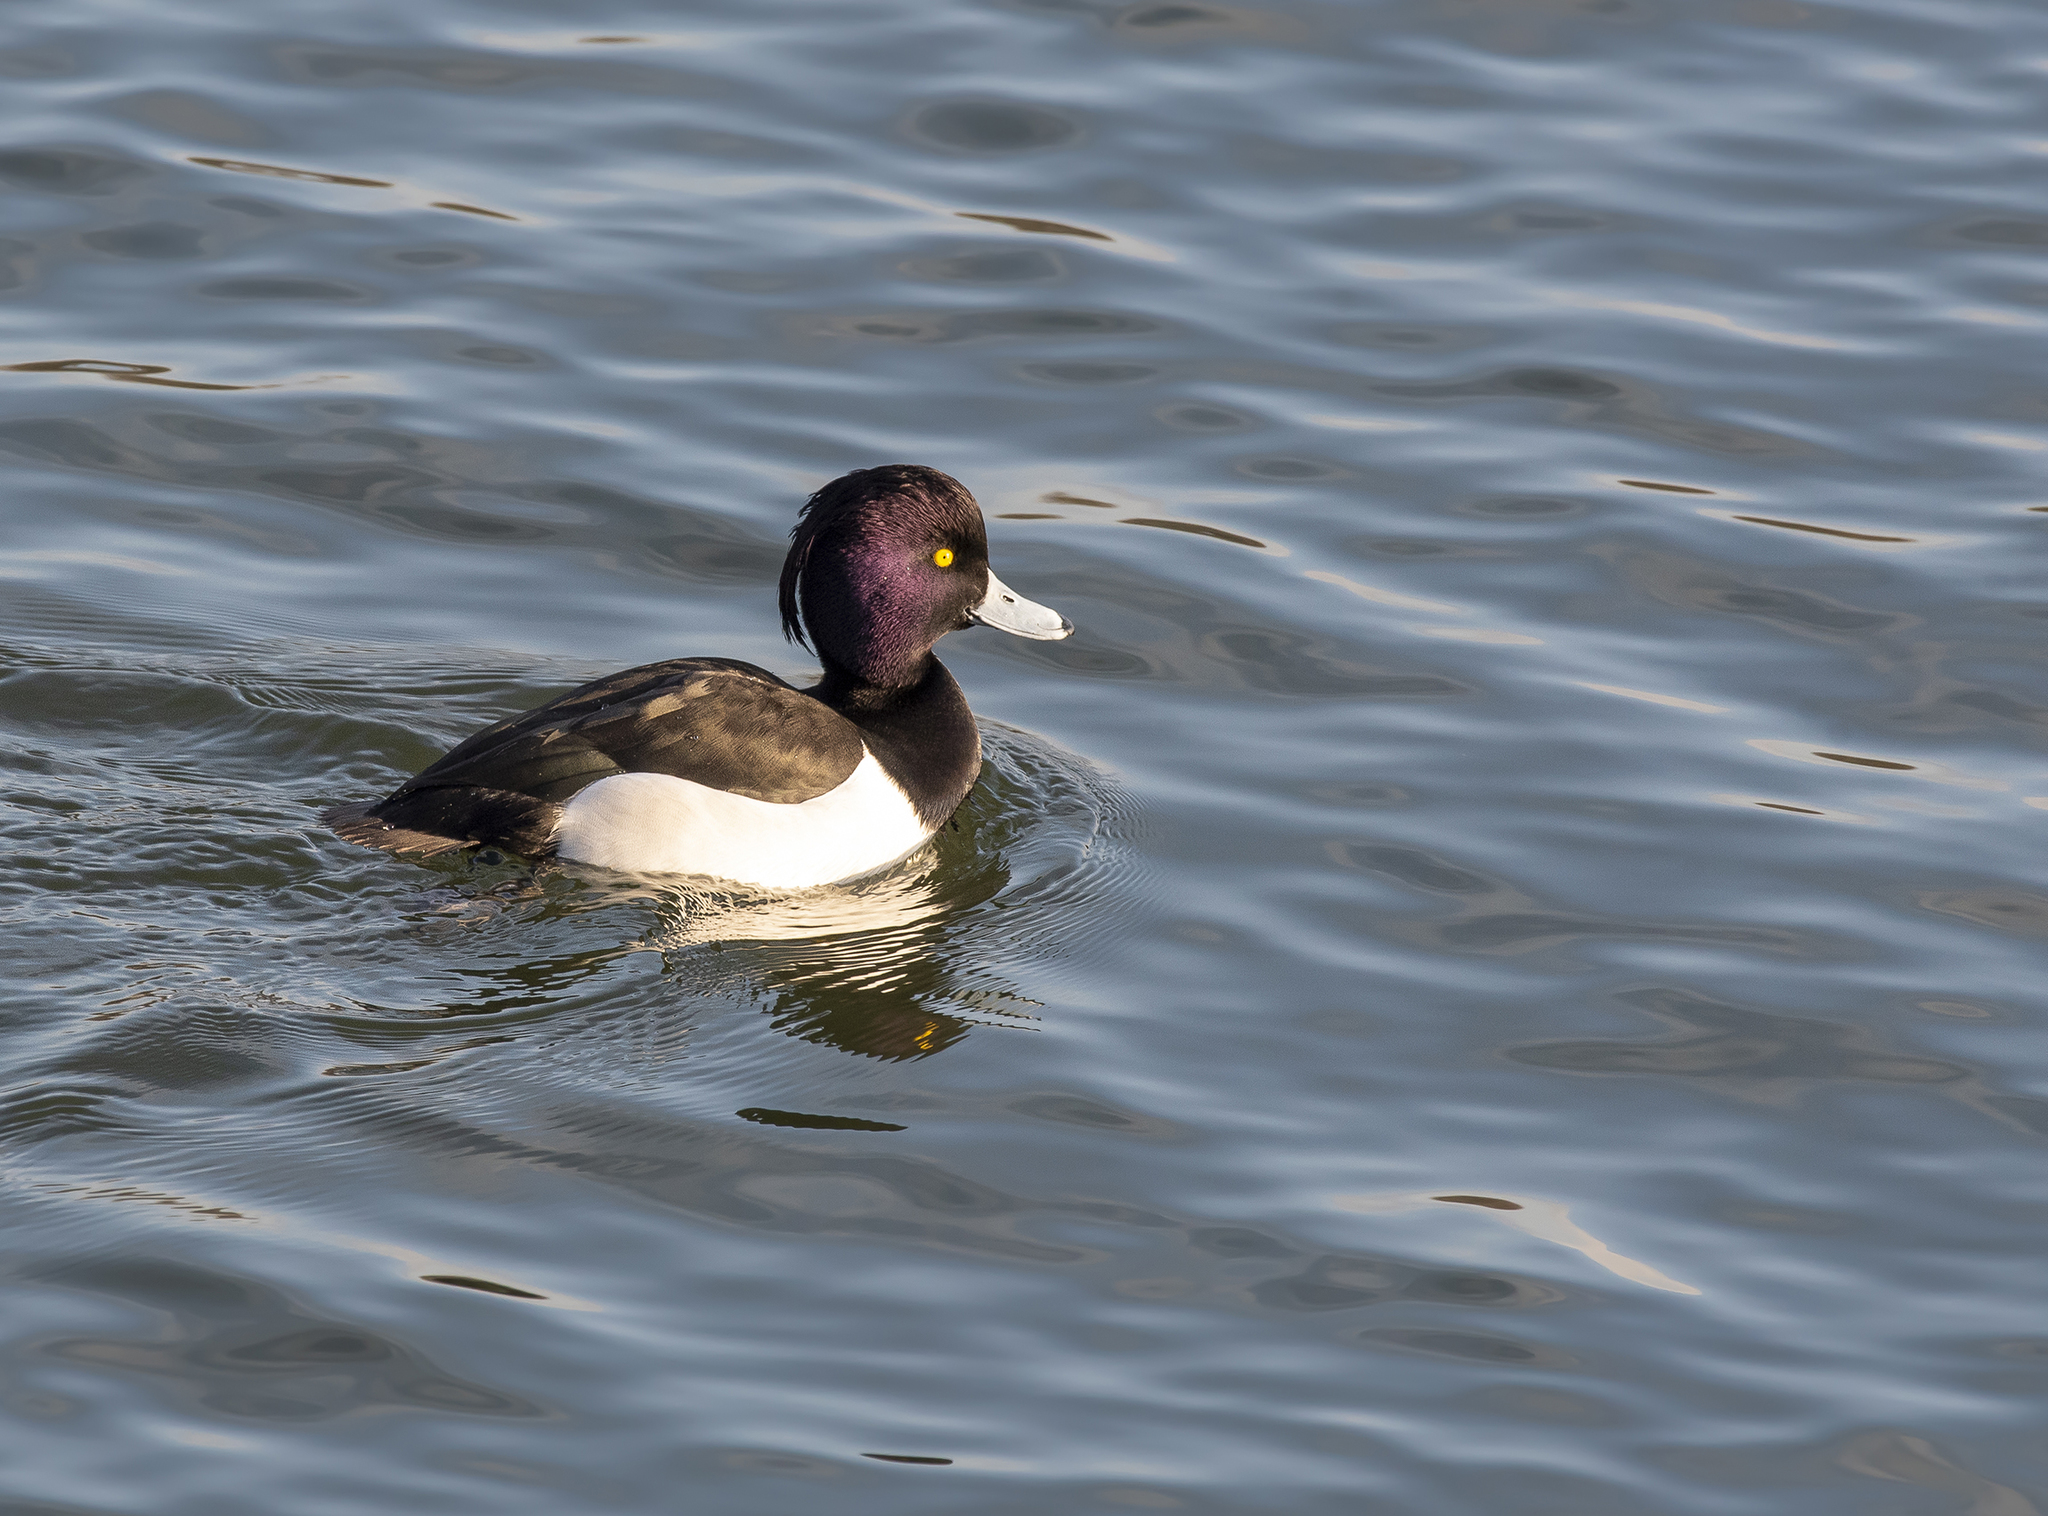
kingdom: Animalia
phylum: Chordata
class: Aves
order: Anseriformes
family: Anatidae
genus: Aythya
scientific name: Aythya fuligula
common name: Tufted duck
